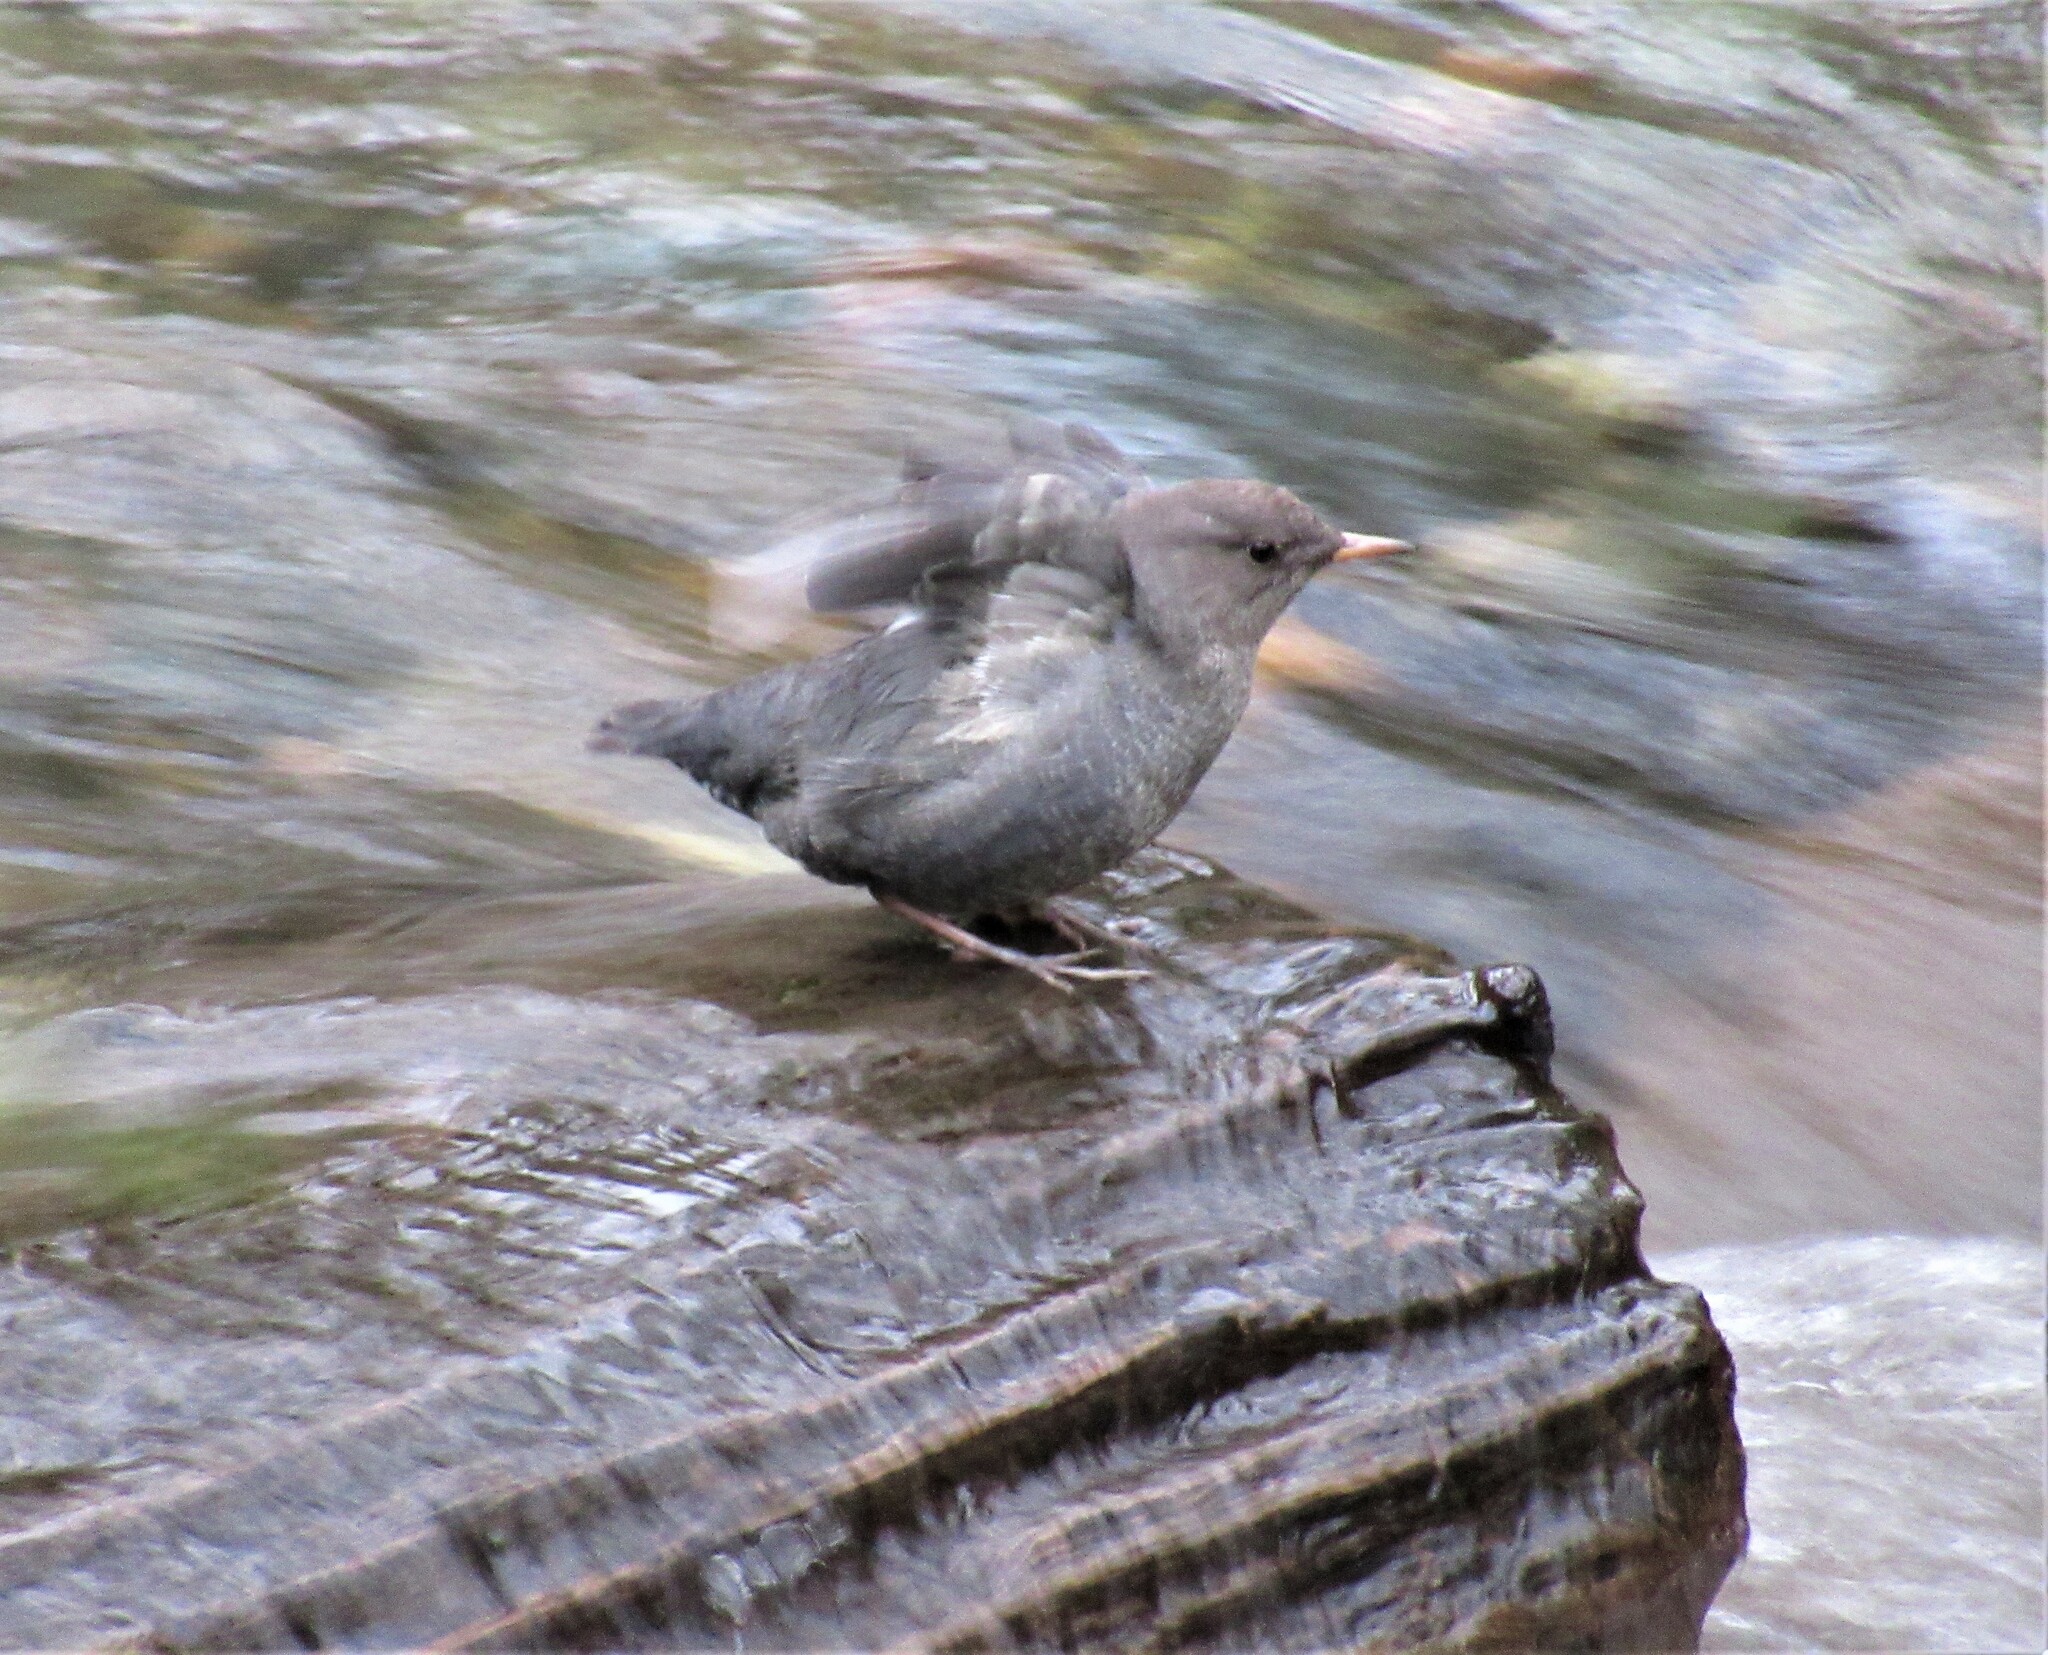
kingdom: Animalia
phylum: Chordata
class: Aves
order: Passeriformes
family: Cinclidae
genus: Cinclus
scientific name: Cinclus mexicanus
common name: American dipper
